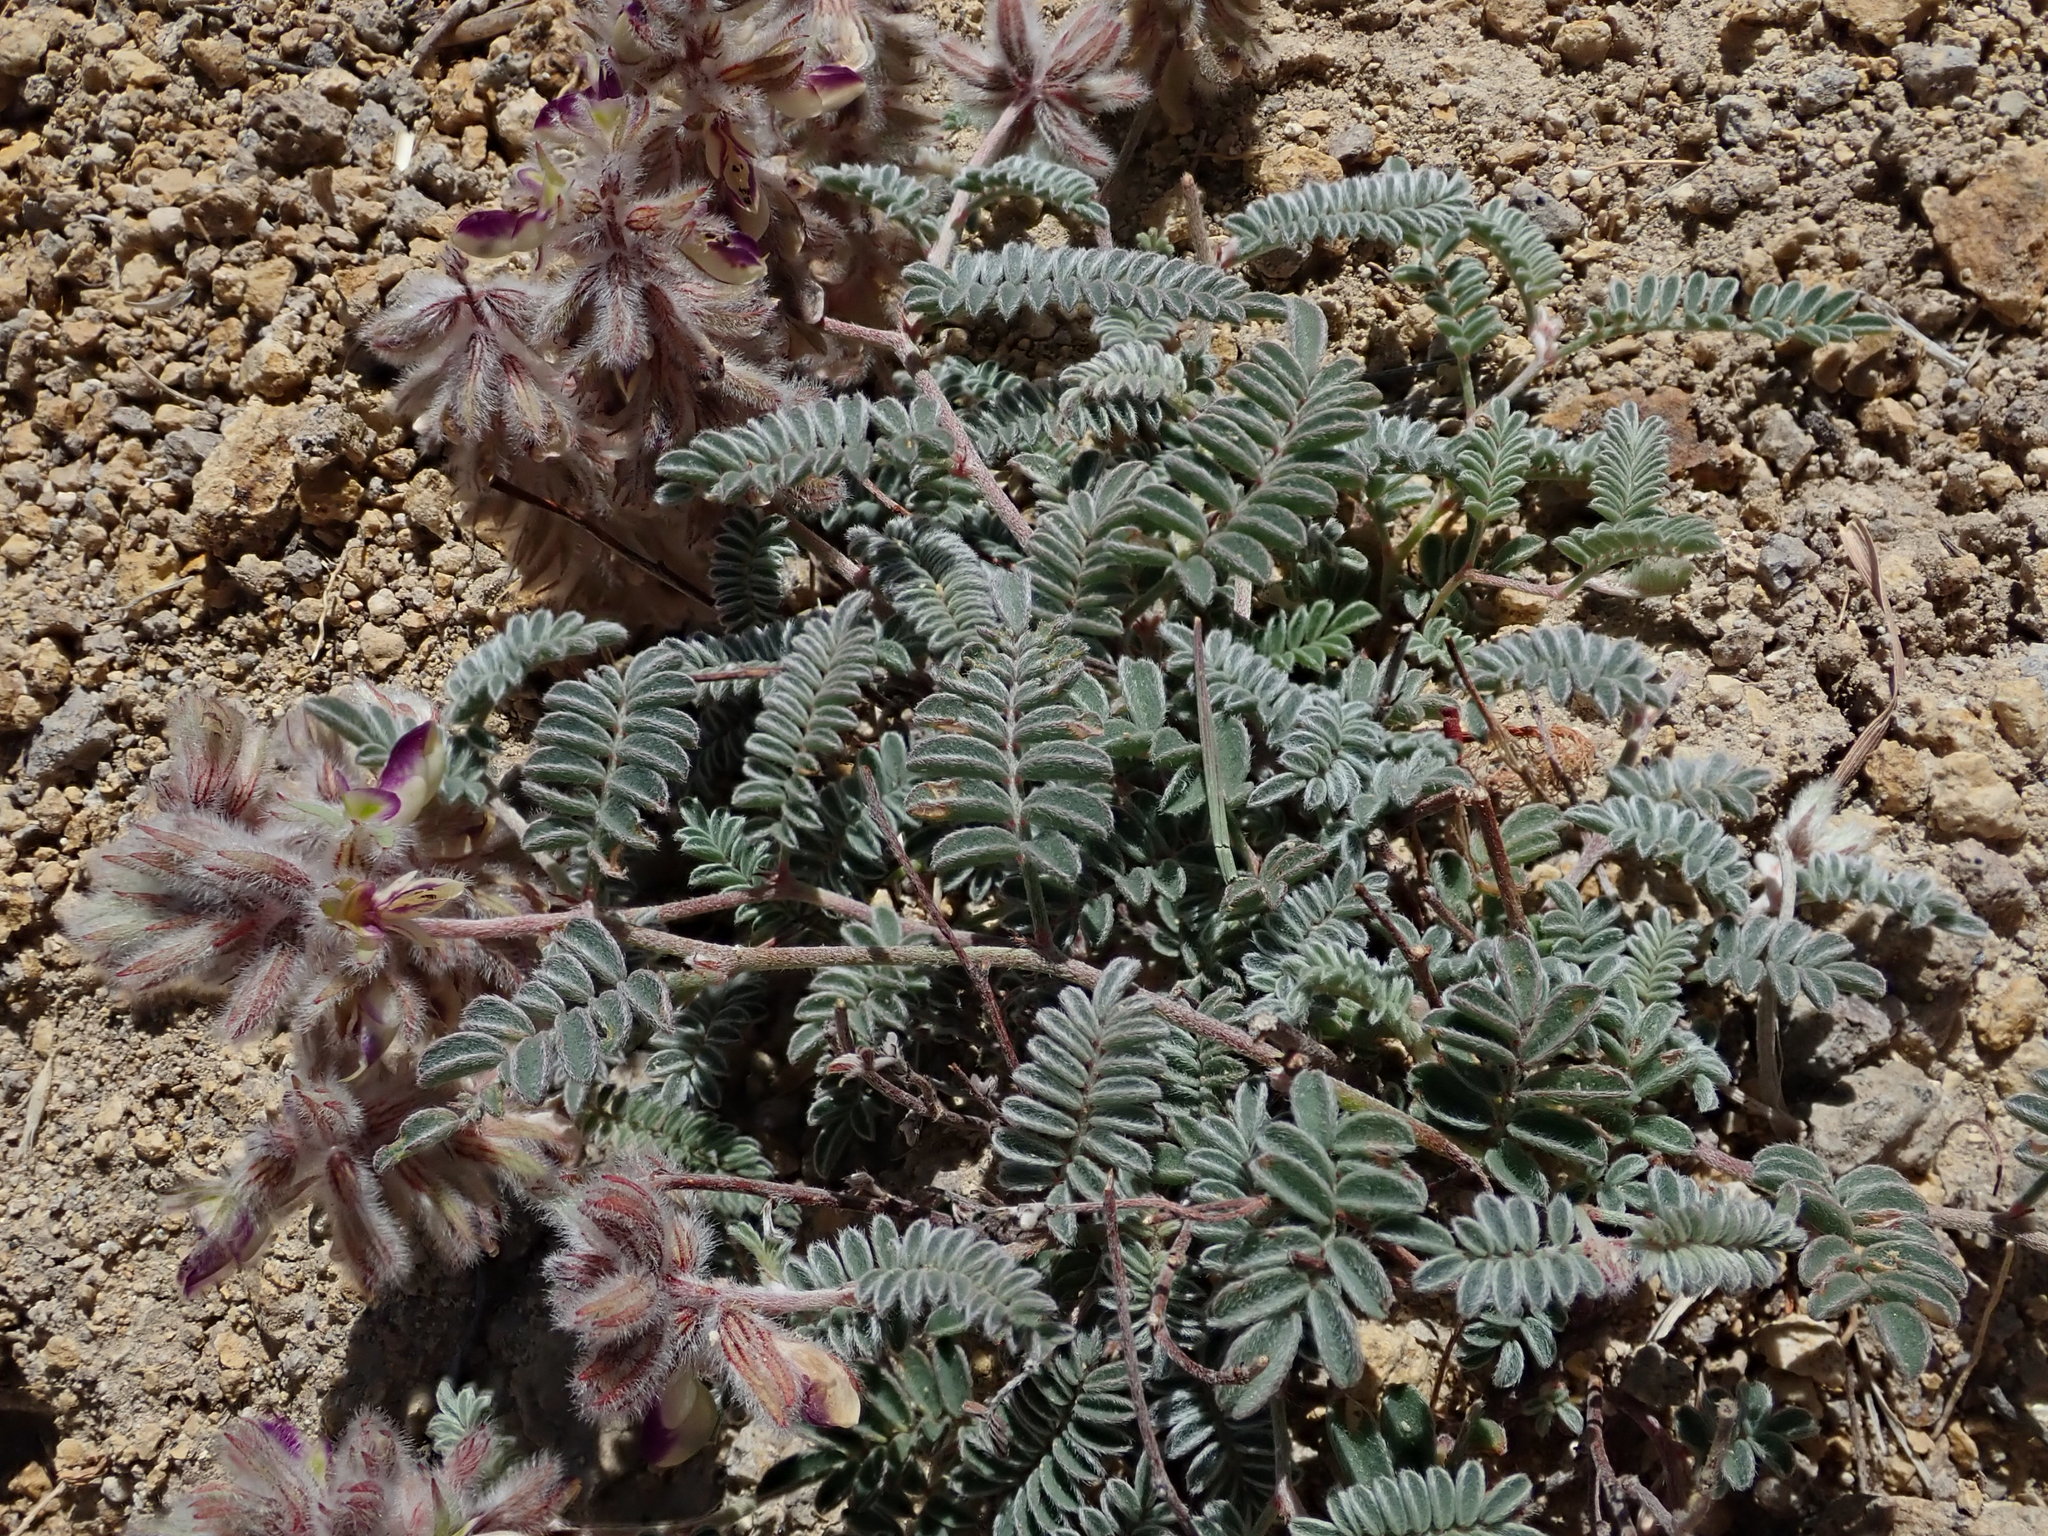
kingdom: Plantae
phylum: Tracheophyta
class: Magnoliopsida
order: Fabales
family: Fabaceae
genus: Marina
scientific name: Marina calycosa
